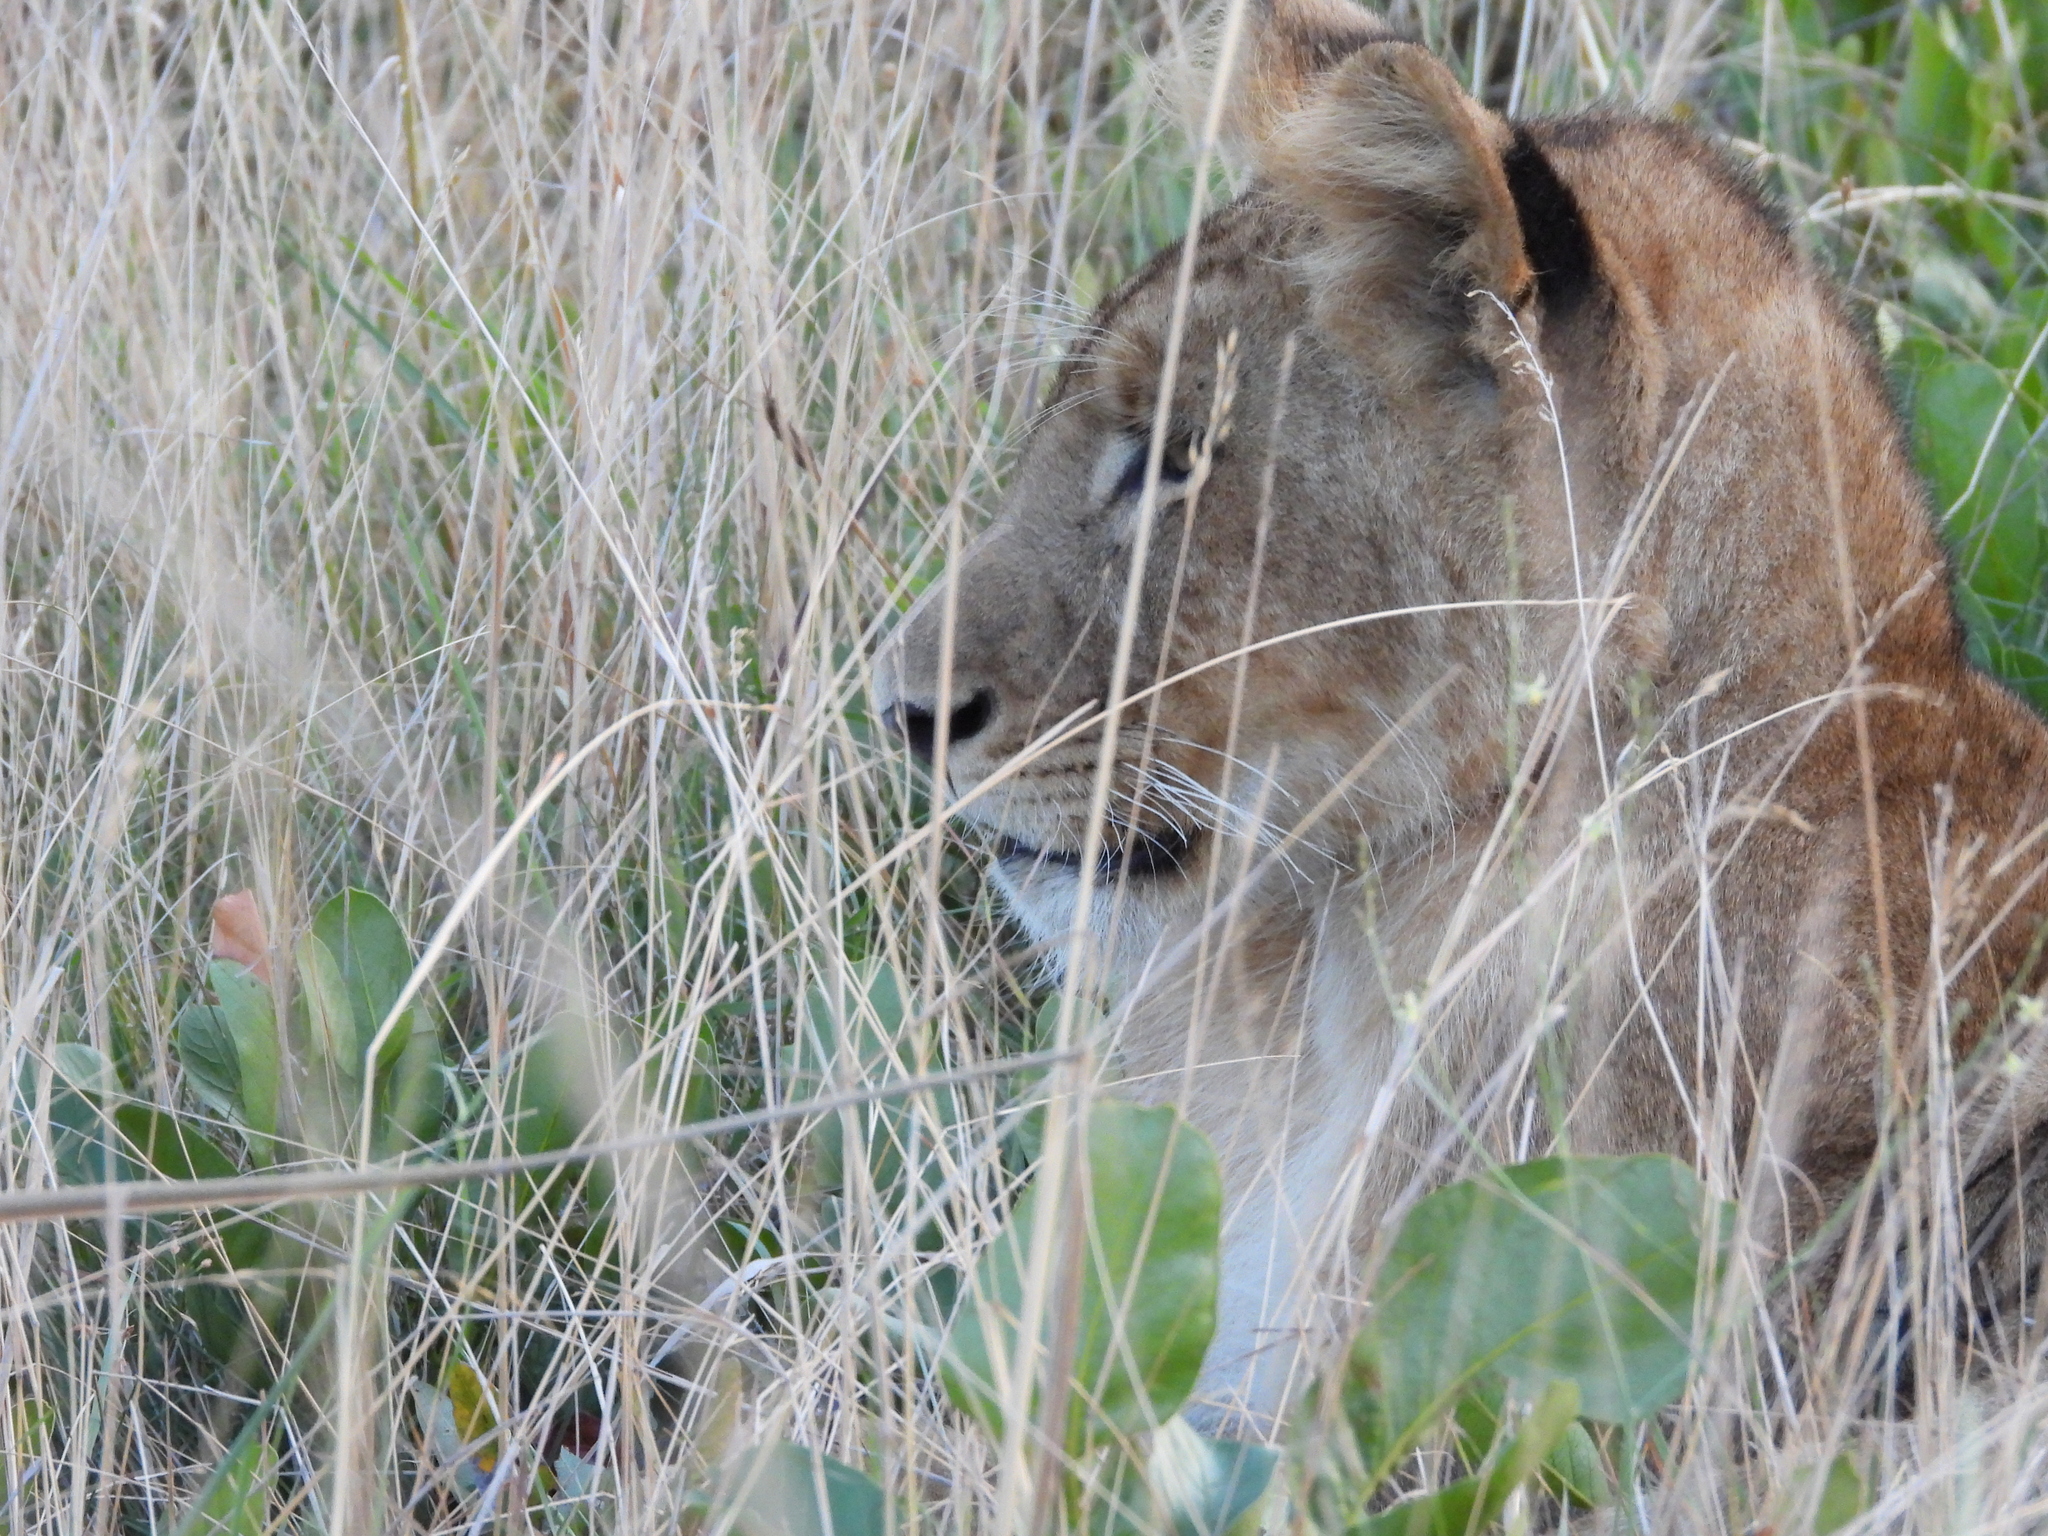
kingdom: Animalia
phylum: Chordata
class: Mammalia
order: Carnivora
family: Felidae
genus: Panthera
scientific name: Panthera leo
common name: Lion
